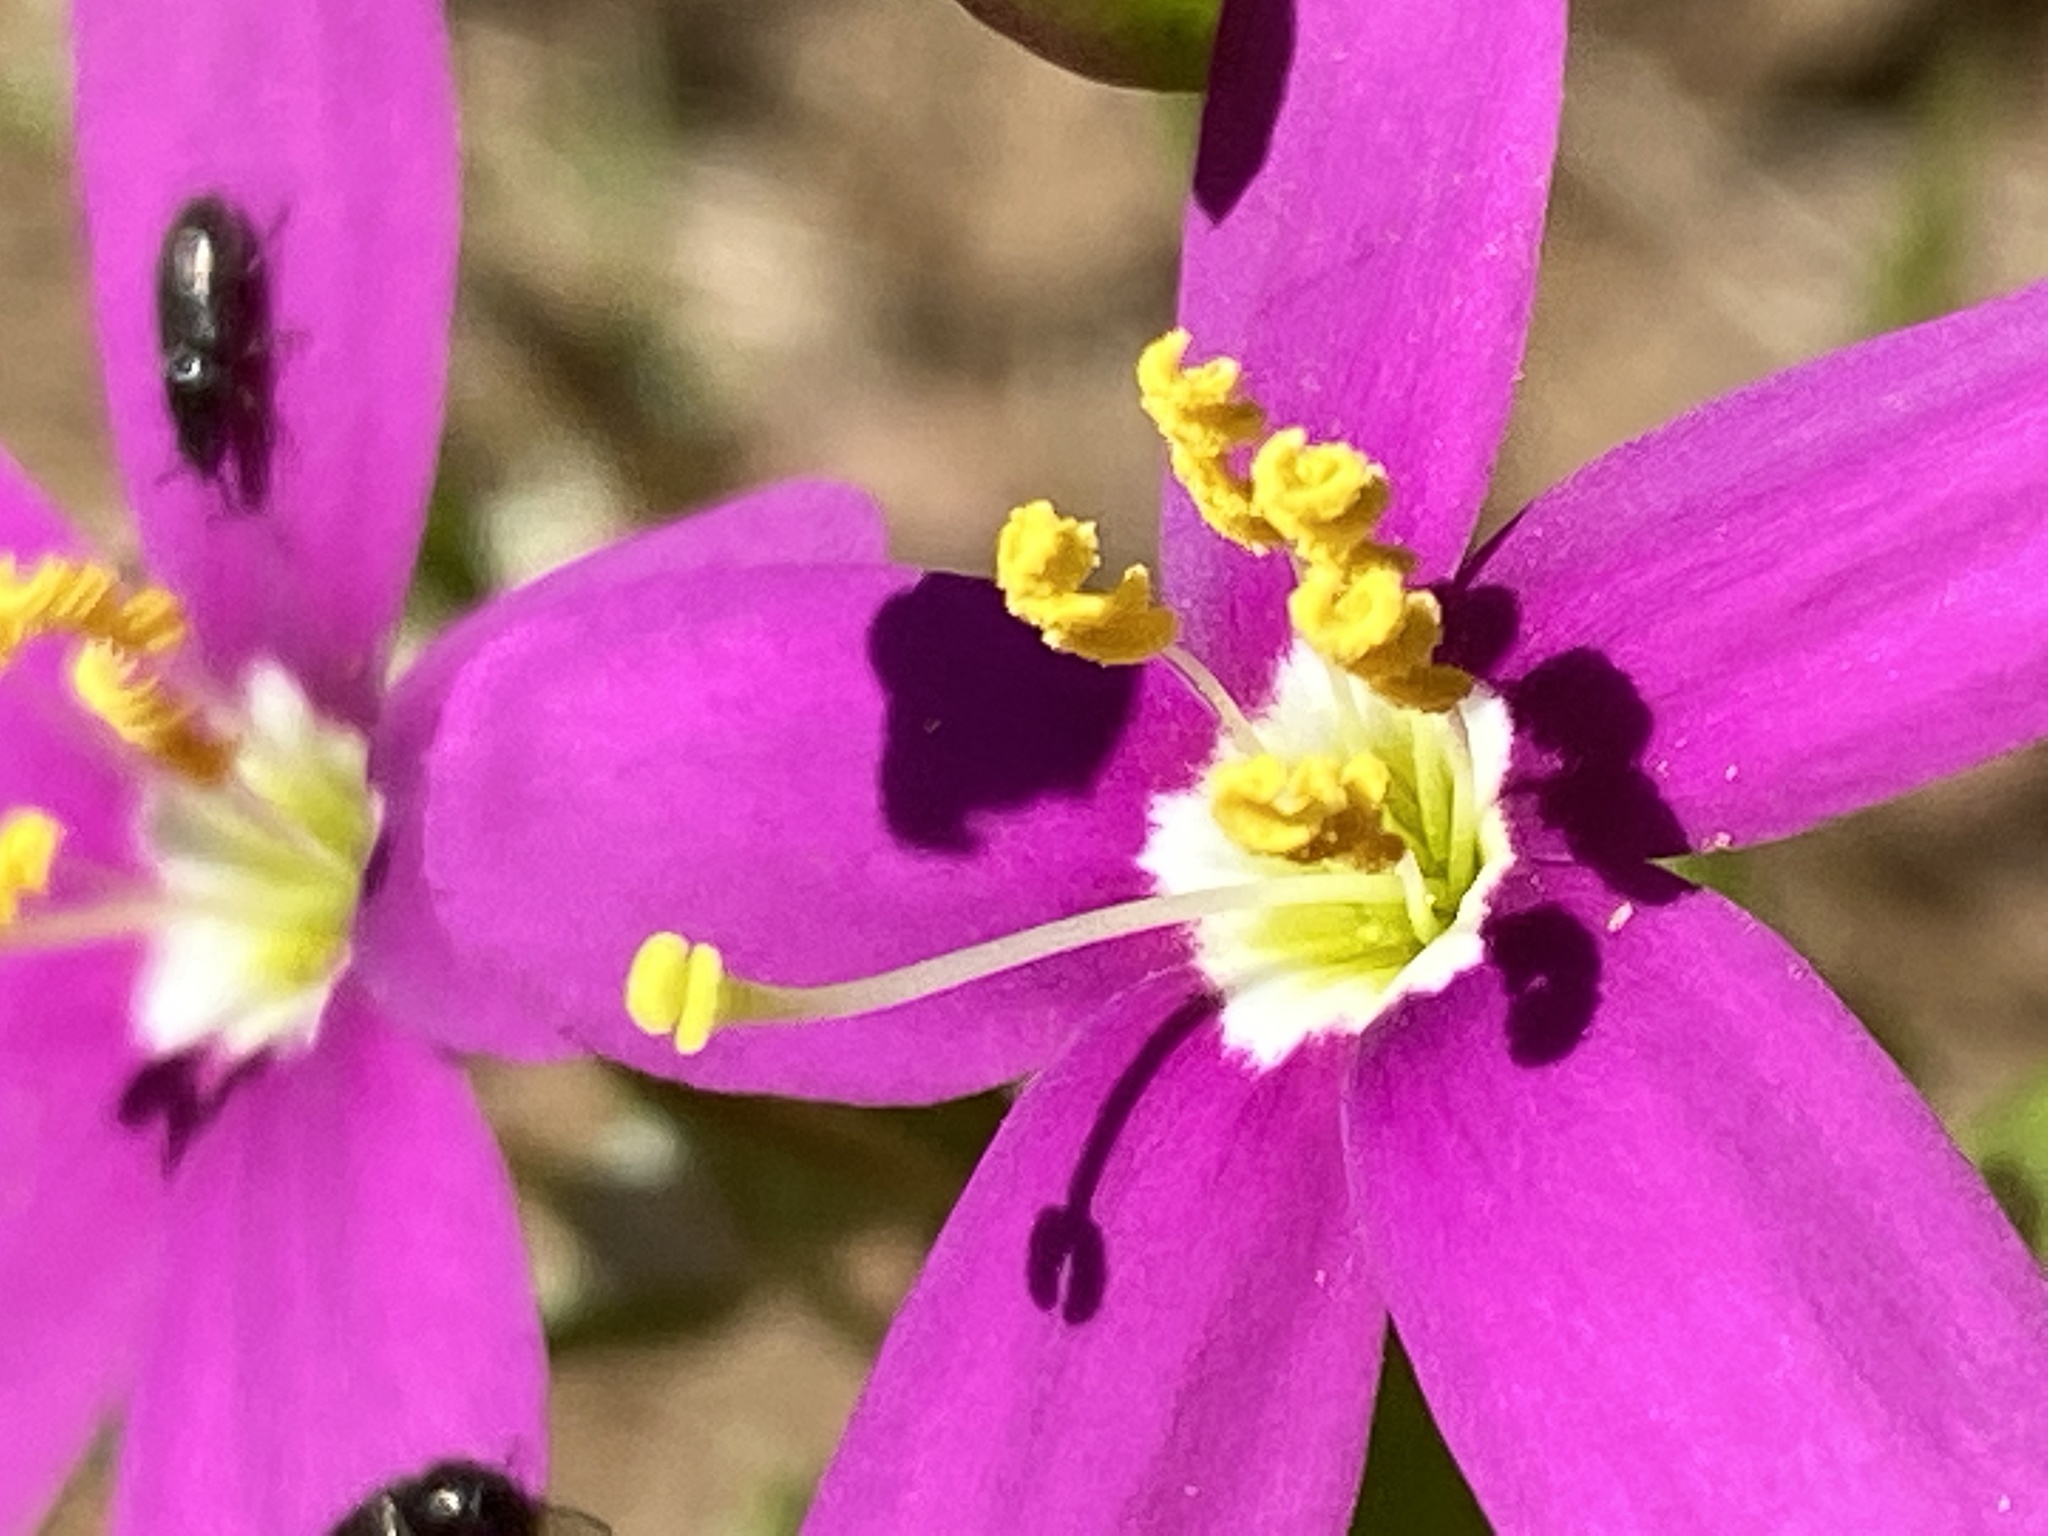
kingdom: Plantae
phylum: Tracheophyta
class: Magnoliopsida
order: Gentianales
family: Gentianaceae
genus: Zeltnera
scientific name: Zeltnera venusta
